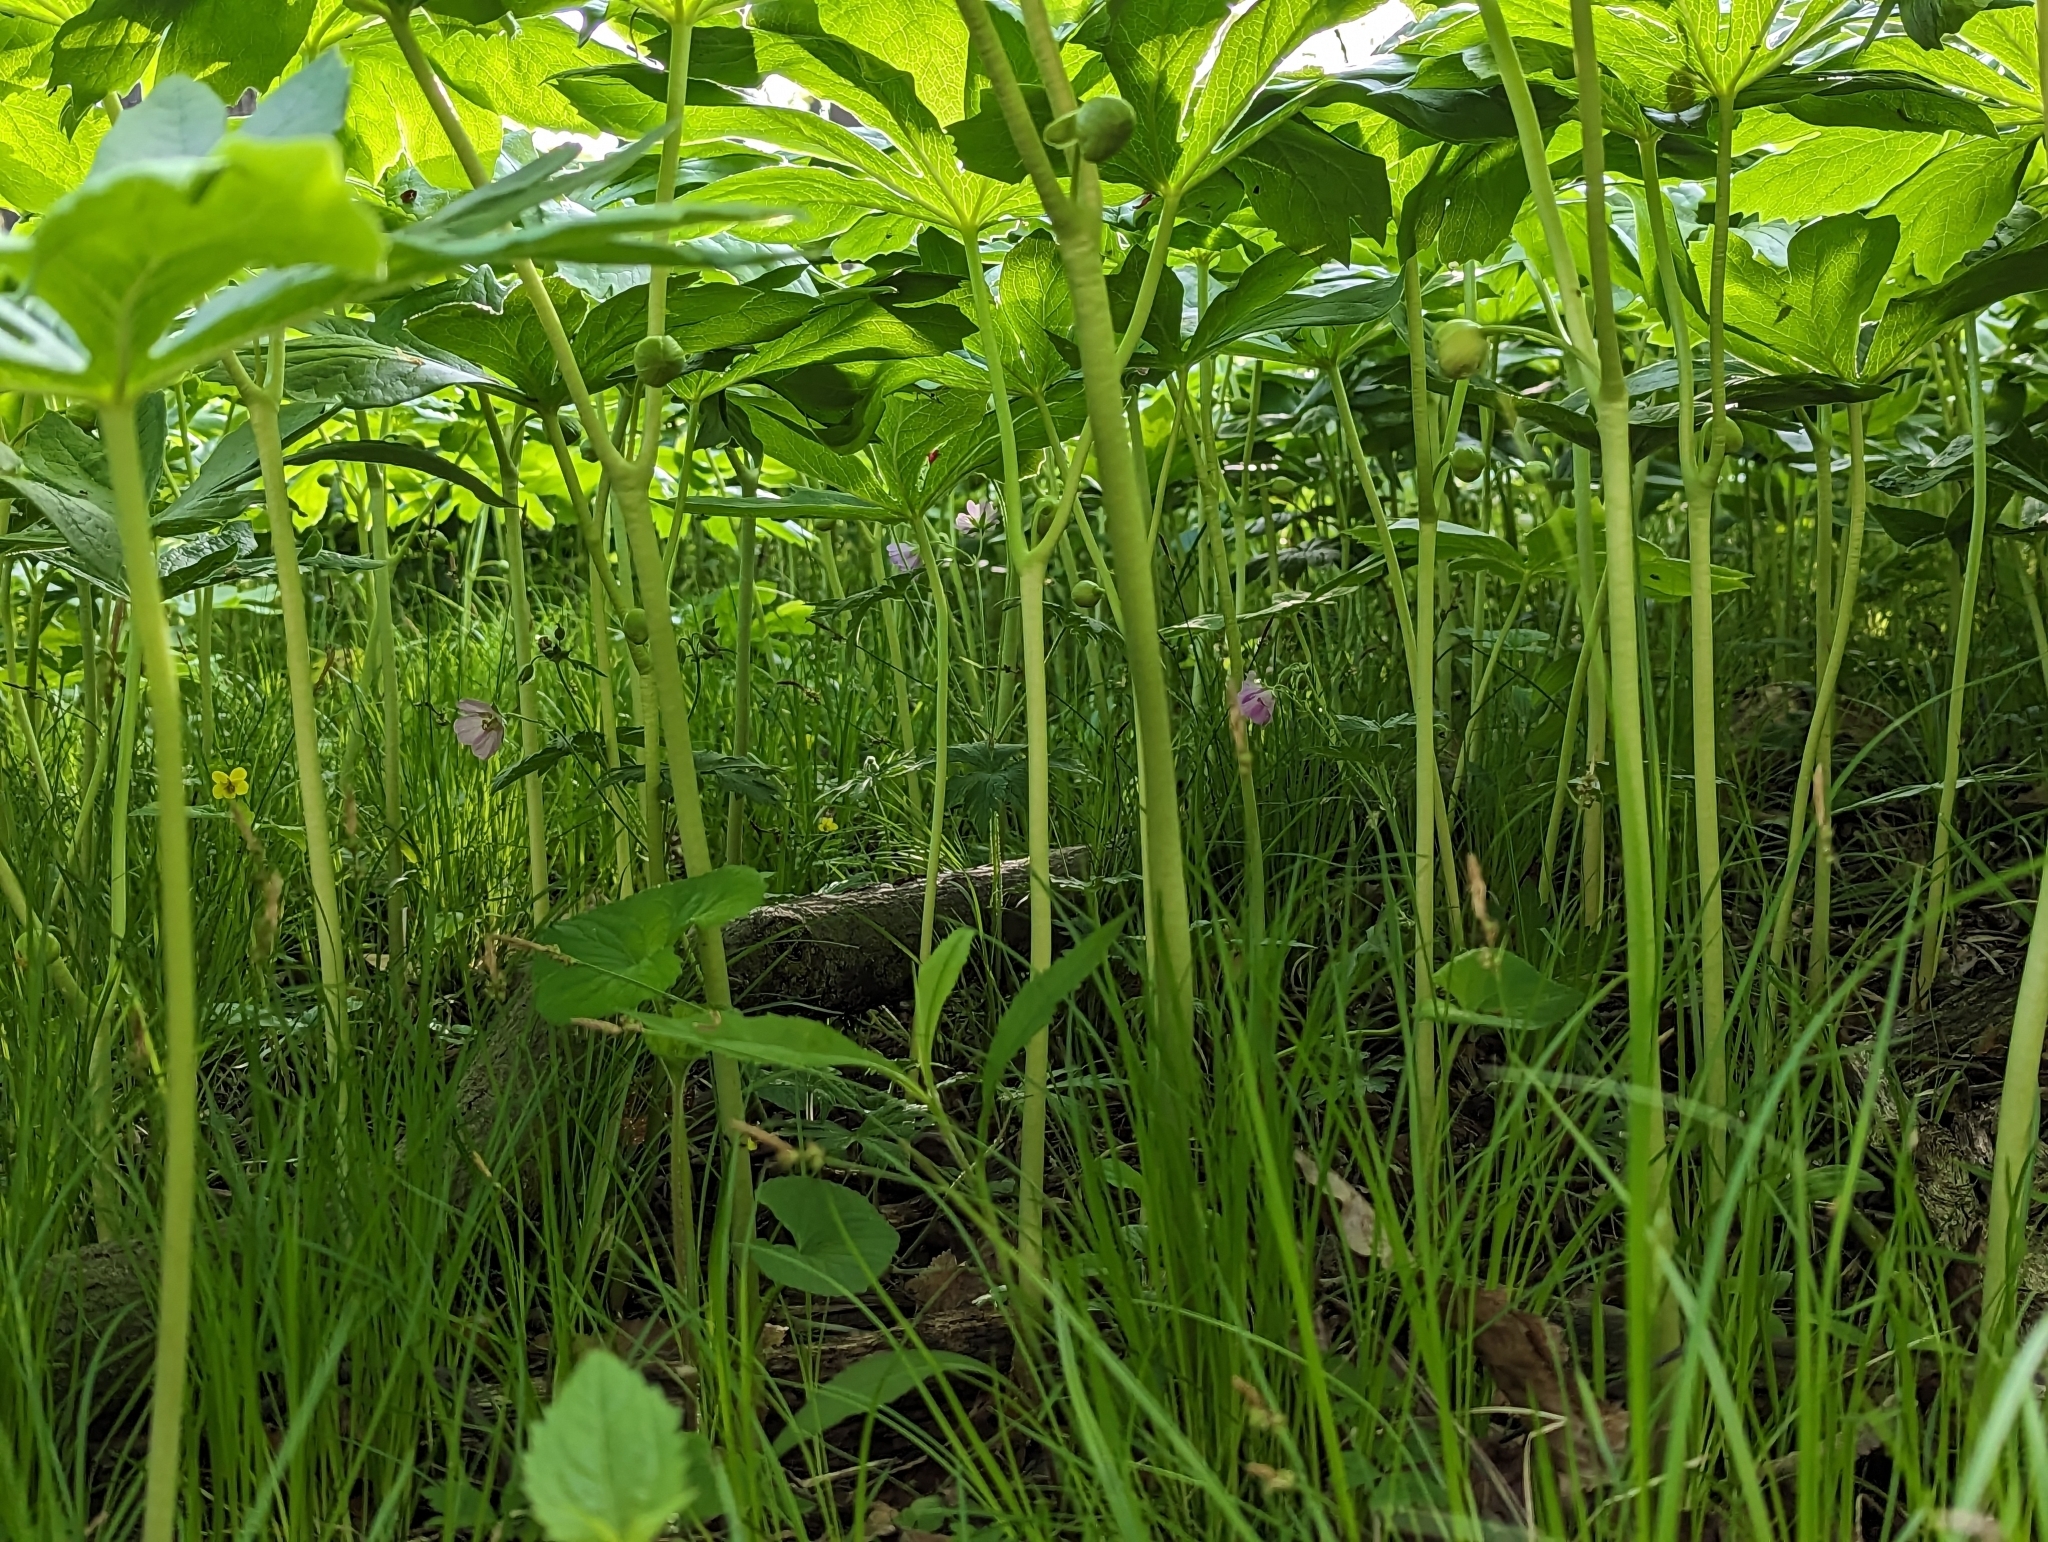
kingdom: Plantae
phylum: Tracheophyta
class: Magnoliopsida
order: Ranunculales
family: Berberidaceae
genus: Podophyllum
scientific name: Podophyllum peltatum
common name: Wild mandrake
